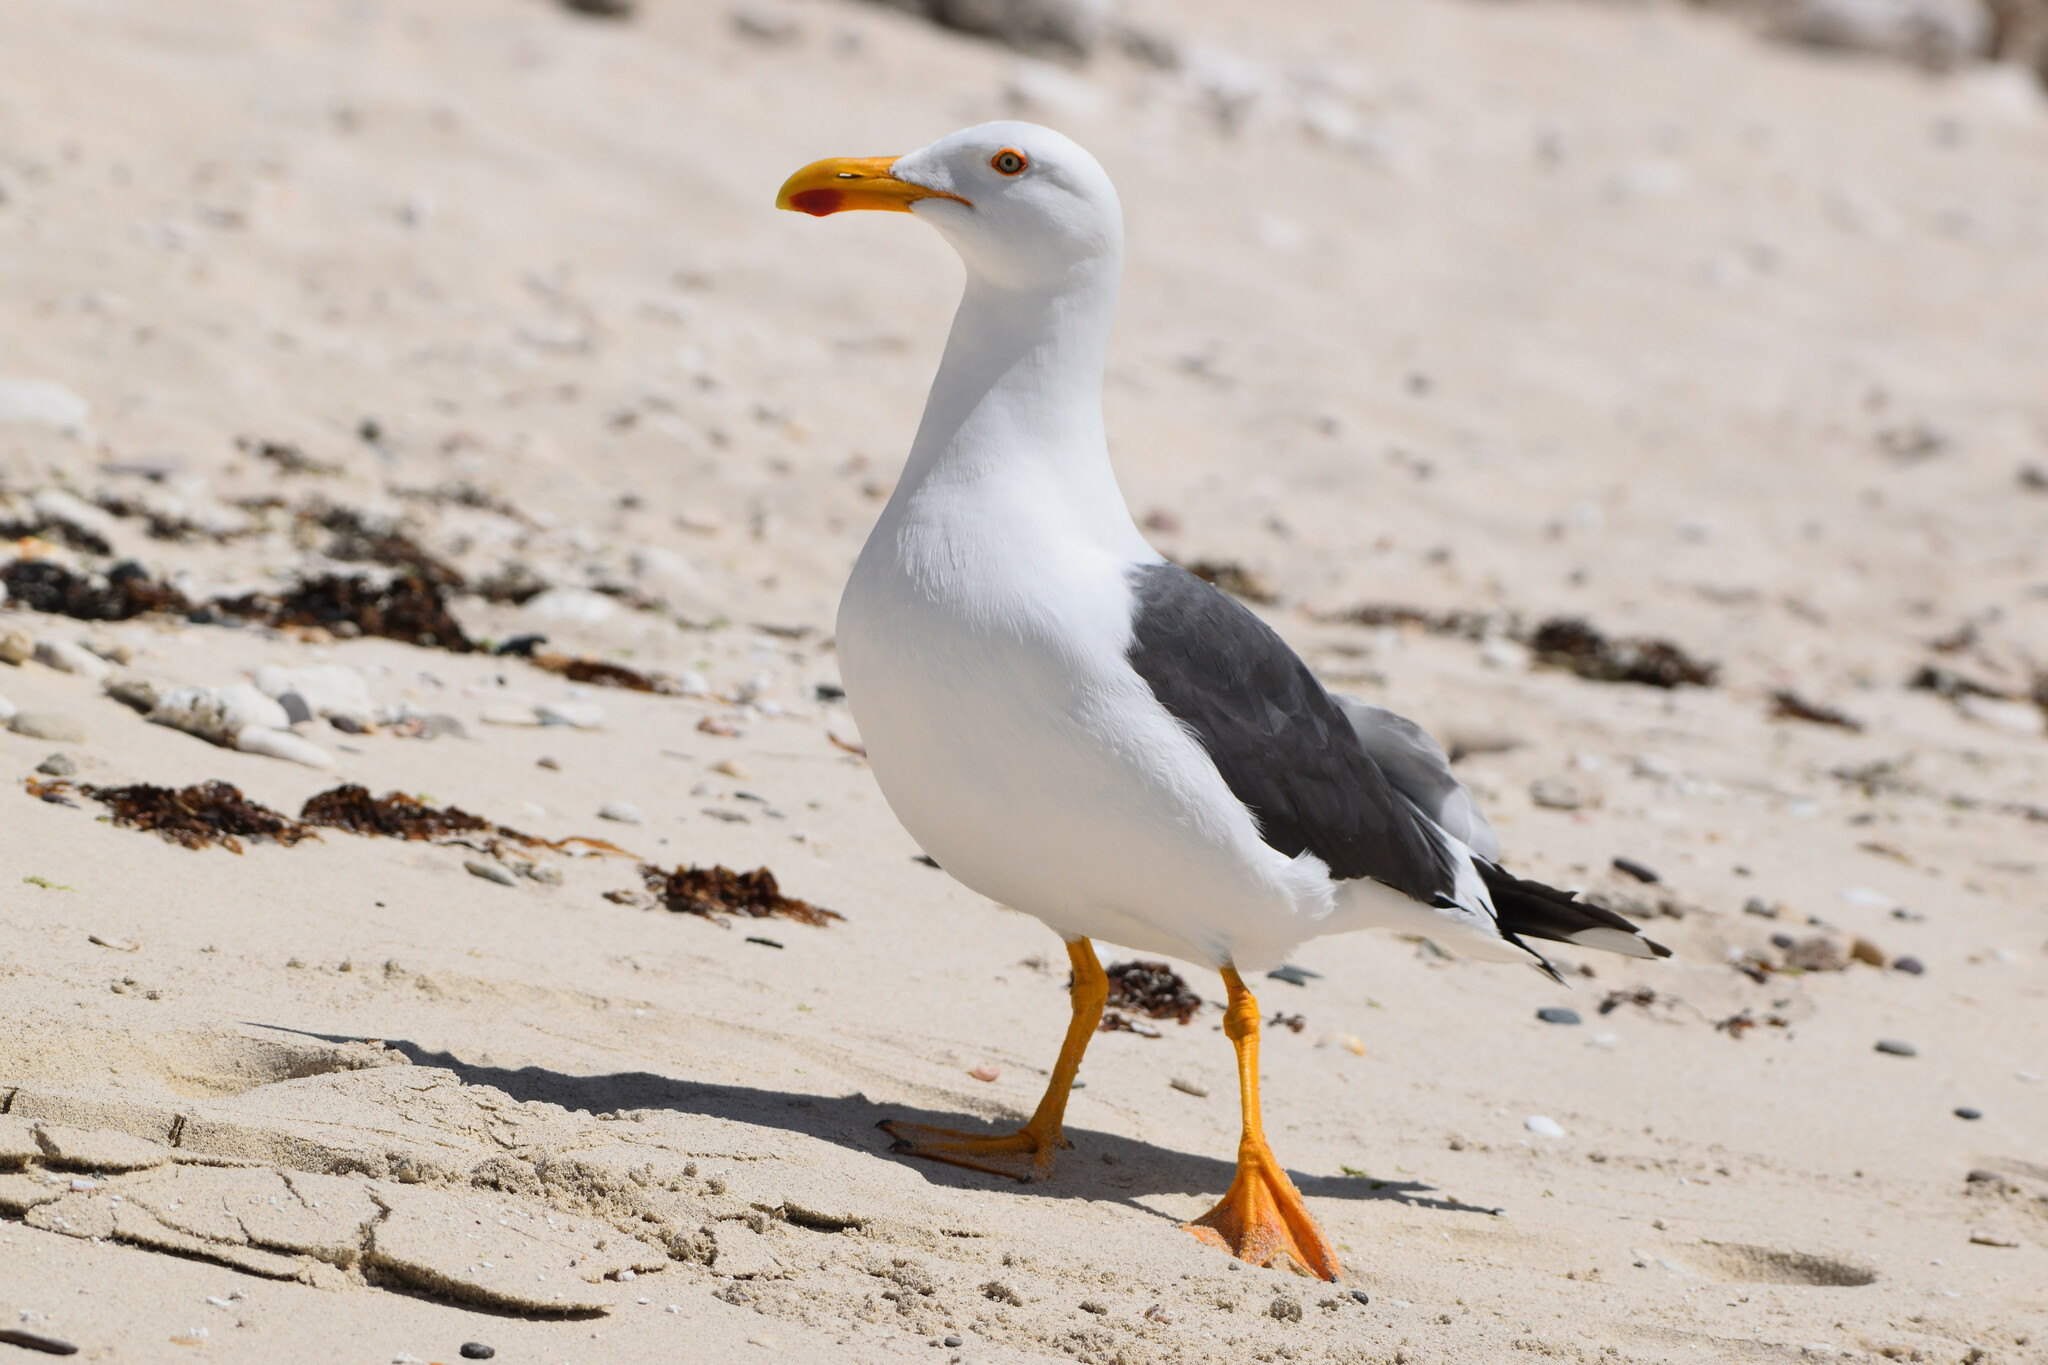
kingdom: Animalia
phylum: Chordata
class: Aves
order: Charadriiformes
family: Laridae
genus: Larus
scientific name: Larus livens
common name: Yellow-footed gull
